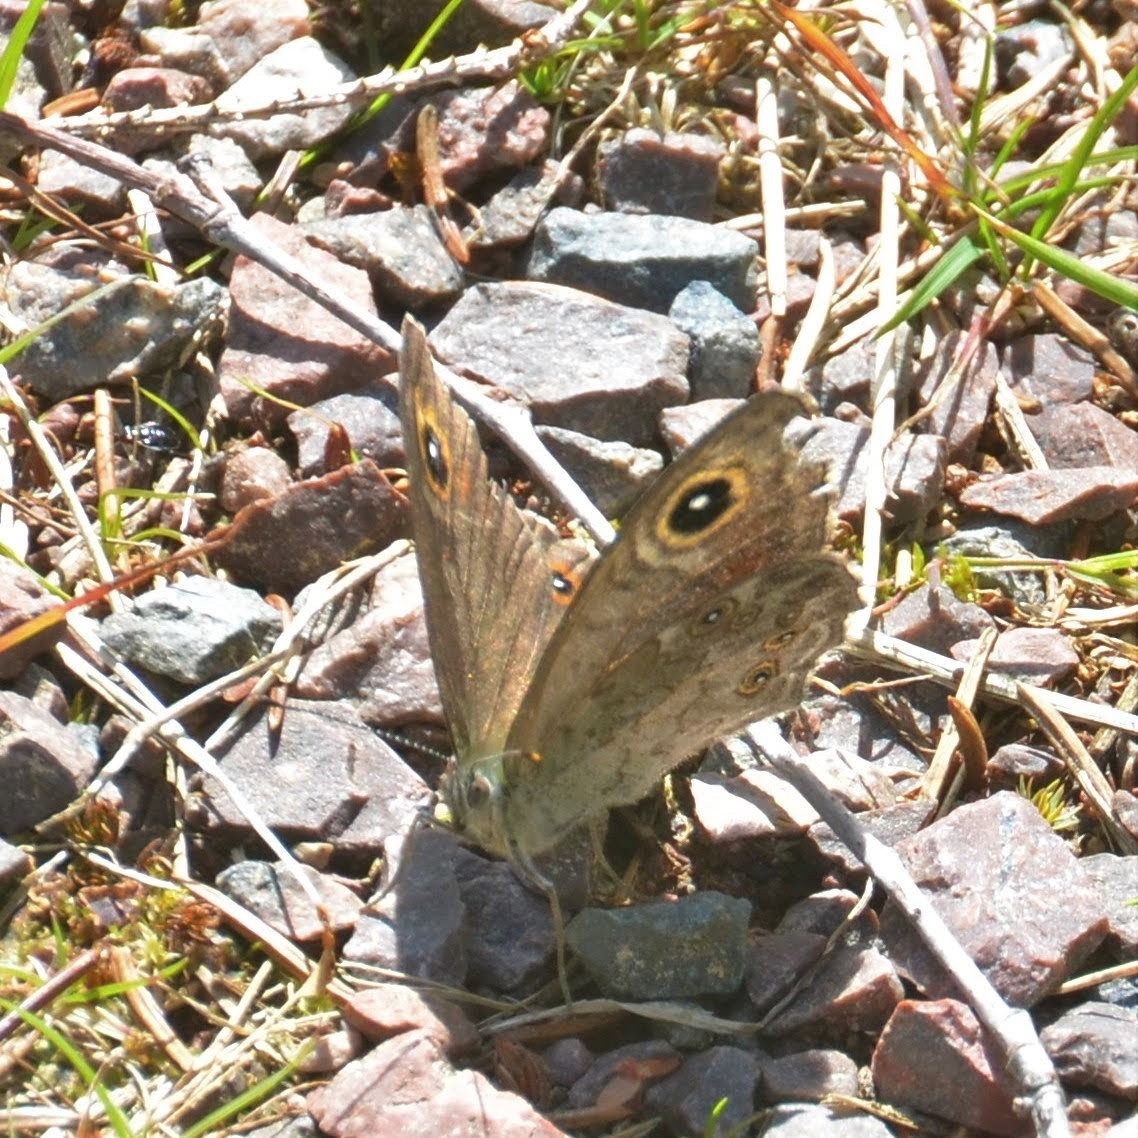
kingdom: Animalia
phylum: Arthropoda
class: Insecta
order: Lepidoptera
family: Nymphalidae
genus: Pararge
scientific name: Pararge Lasiommata maera
